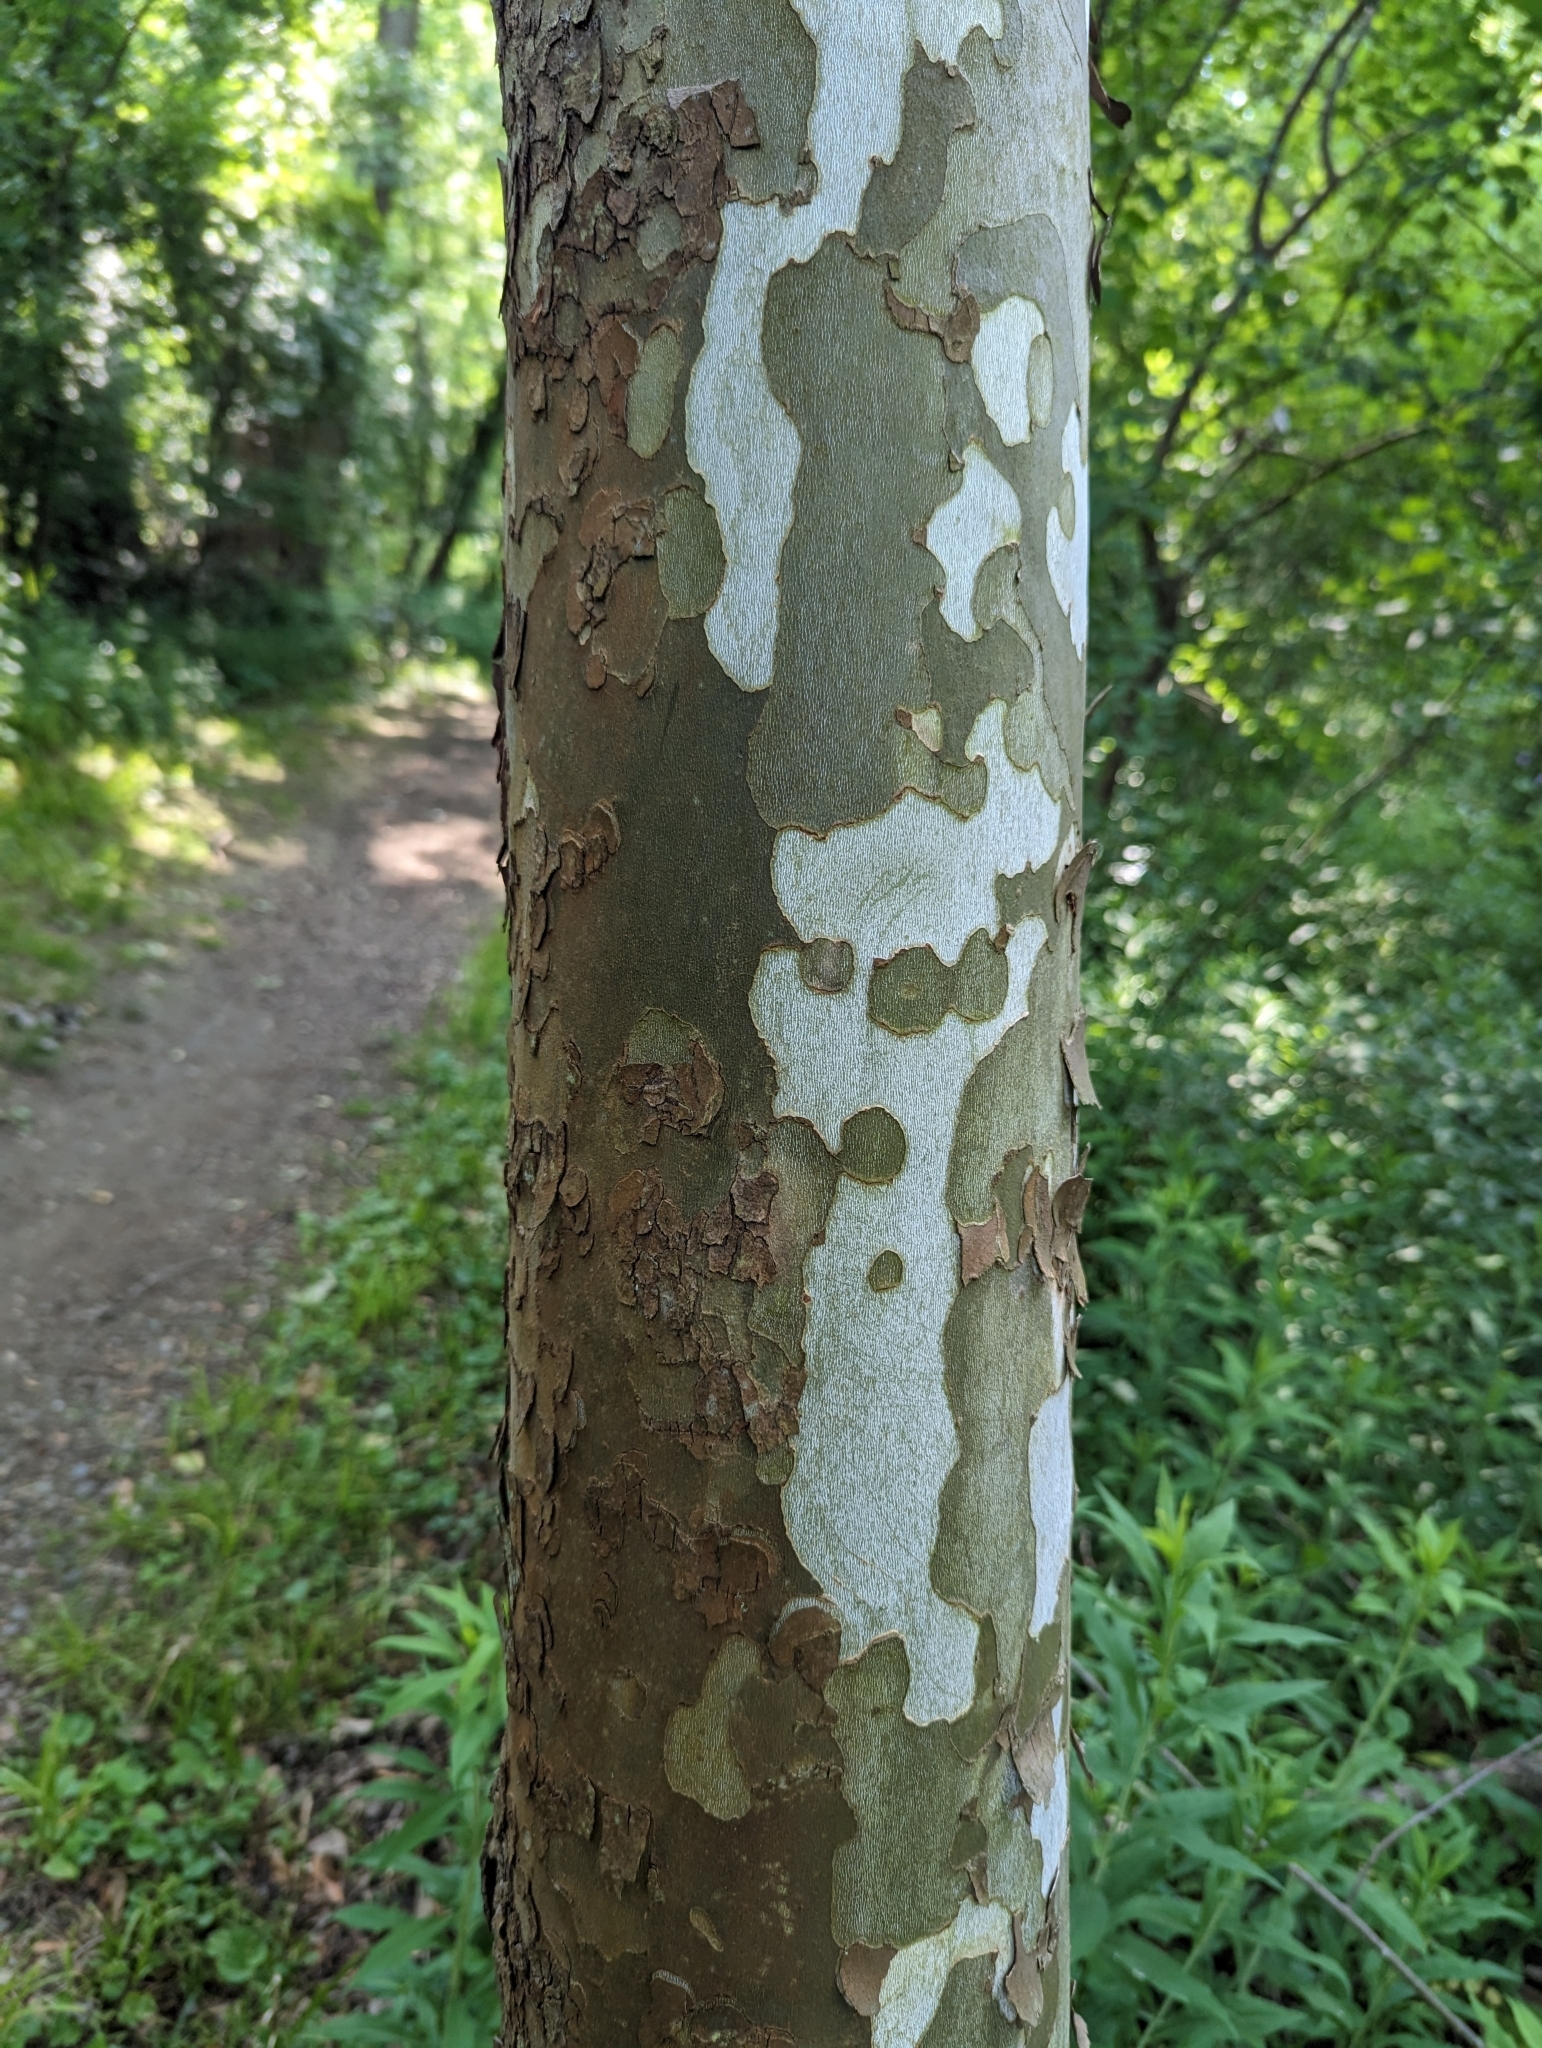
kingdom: Plantae
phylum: Tracheophyta
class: Magnoliopsida
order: Proteales
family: Platanaceae
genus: Platanus
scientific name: Platanus occidentalis
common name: American sycamore
